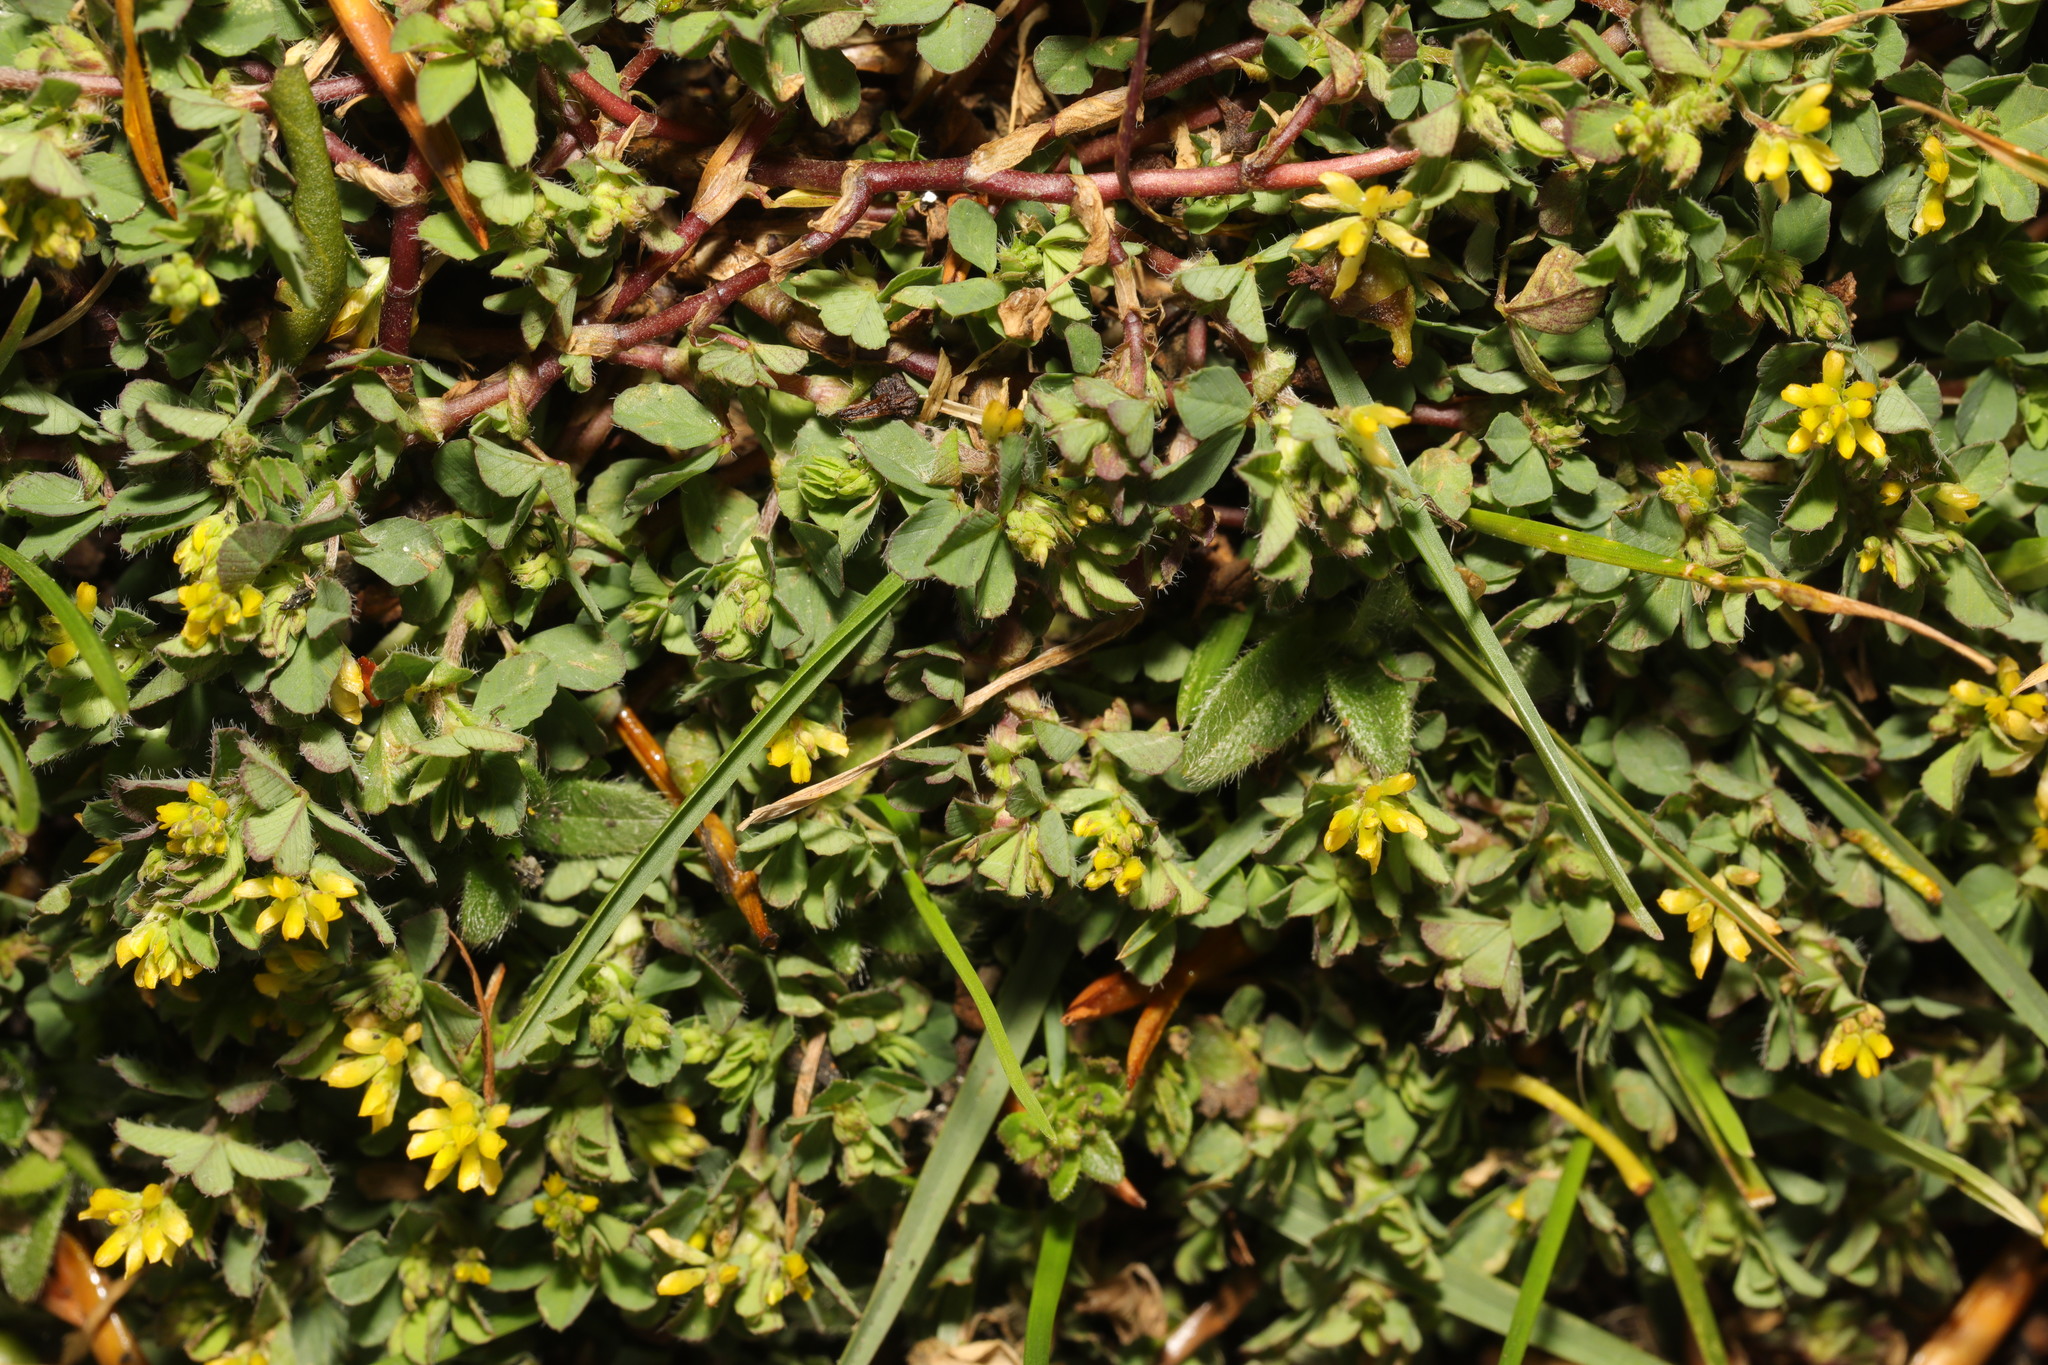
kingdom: Plantae
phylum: Tracheophyta
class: Magnoliopsida
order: Fabales
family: Fabaceae
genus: Trifolium
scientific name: Trifolium dubium
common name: Suckling clover
